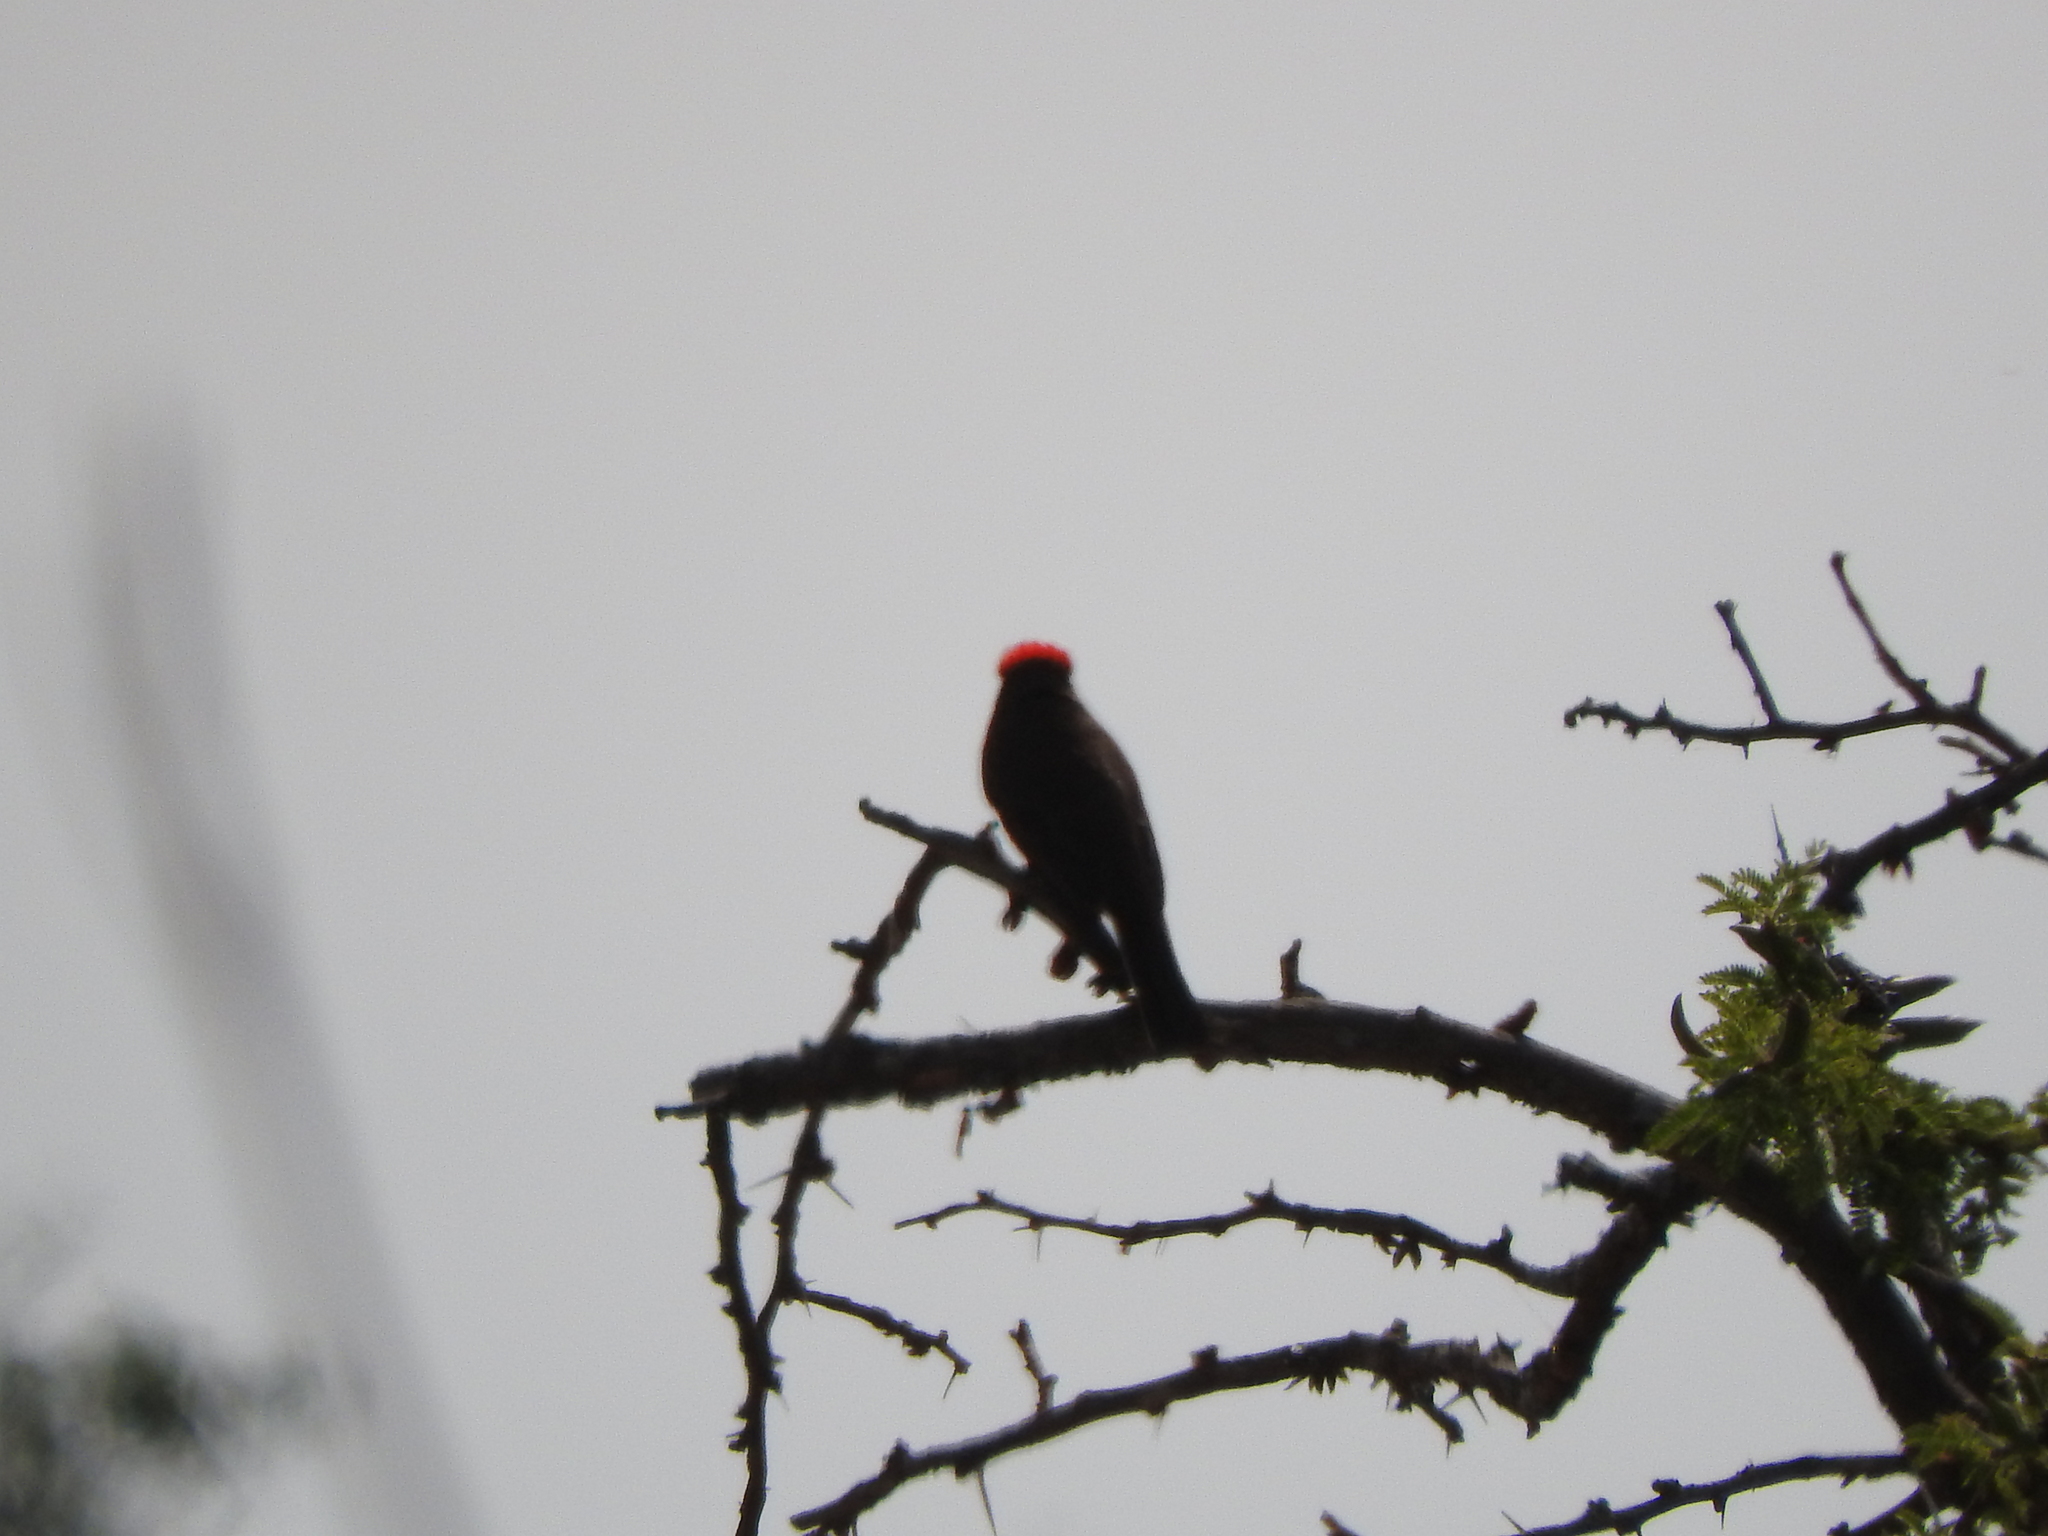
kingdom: Animalia
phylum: Chordata
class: Aves
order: Passeriformes
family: Tyrannidae
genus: Pyrocephalus
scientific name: Pyrocephalus rubinus
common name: Vermilion flycatcher
